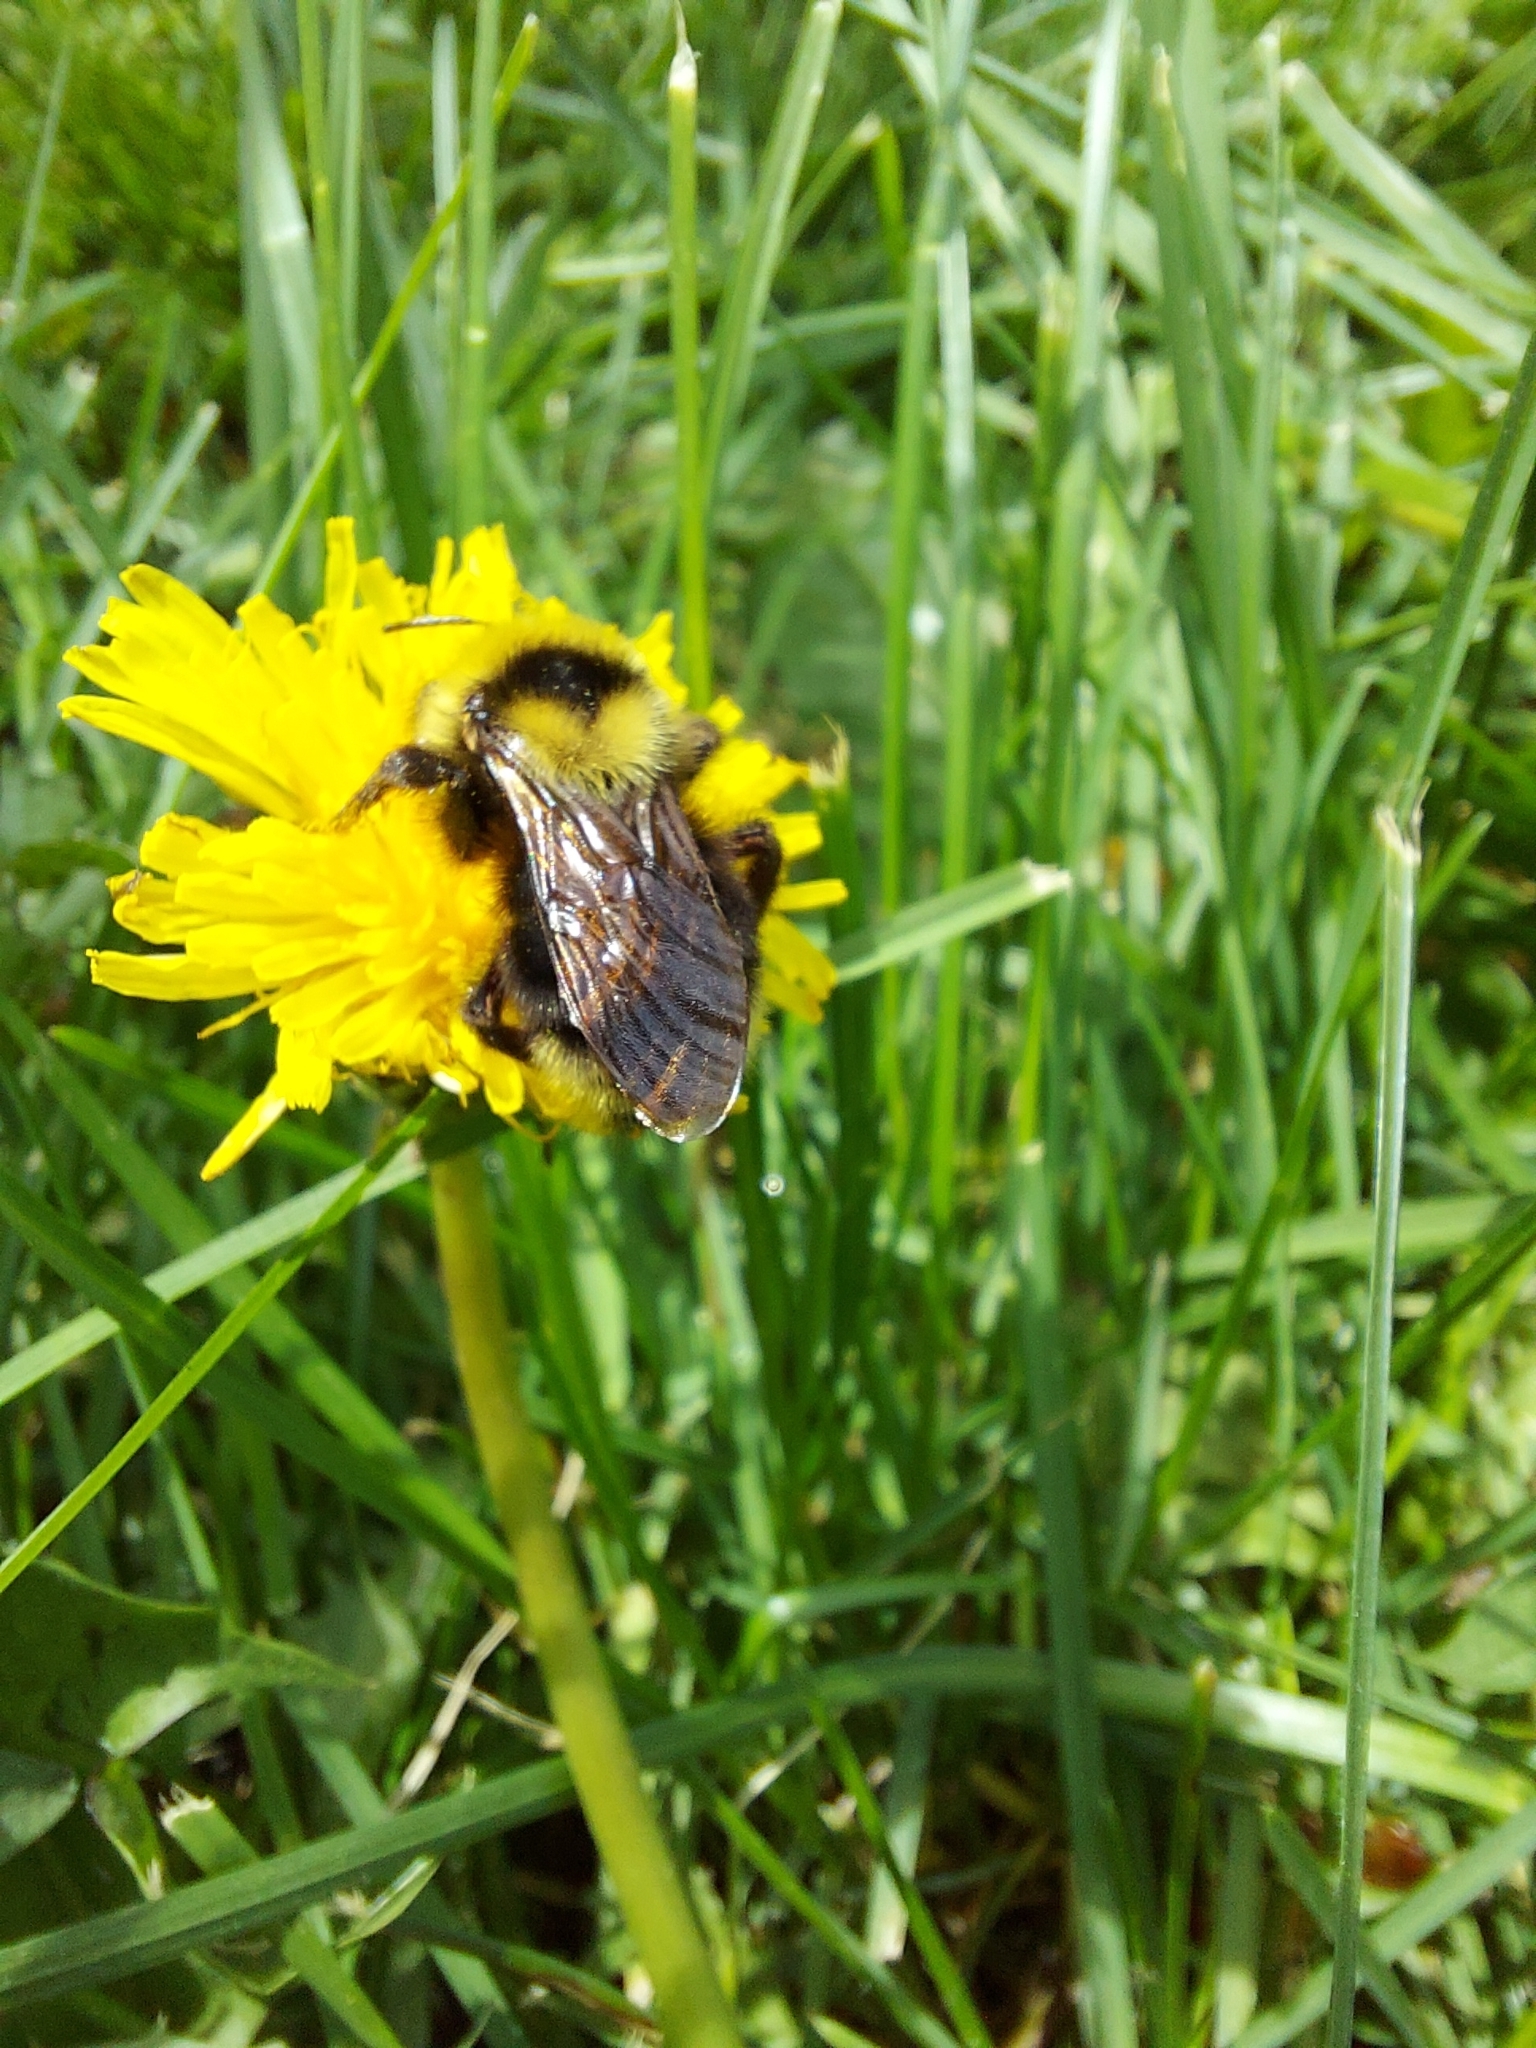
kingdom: Animalia
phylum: Arthropoda
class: Insecta
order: Hymenoptera
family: Apidae
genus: Bombus
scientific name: Bombus insularis
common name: Indiscriminate cuckoo bumble bee
